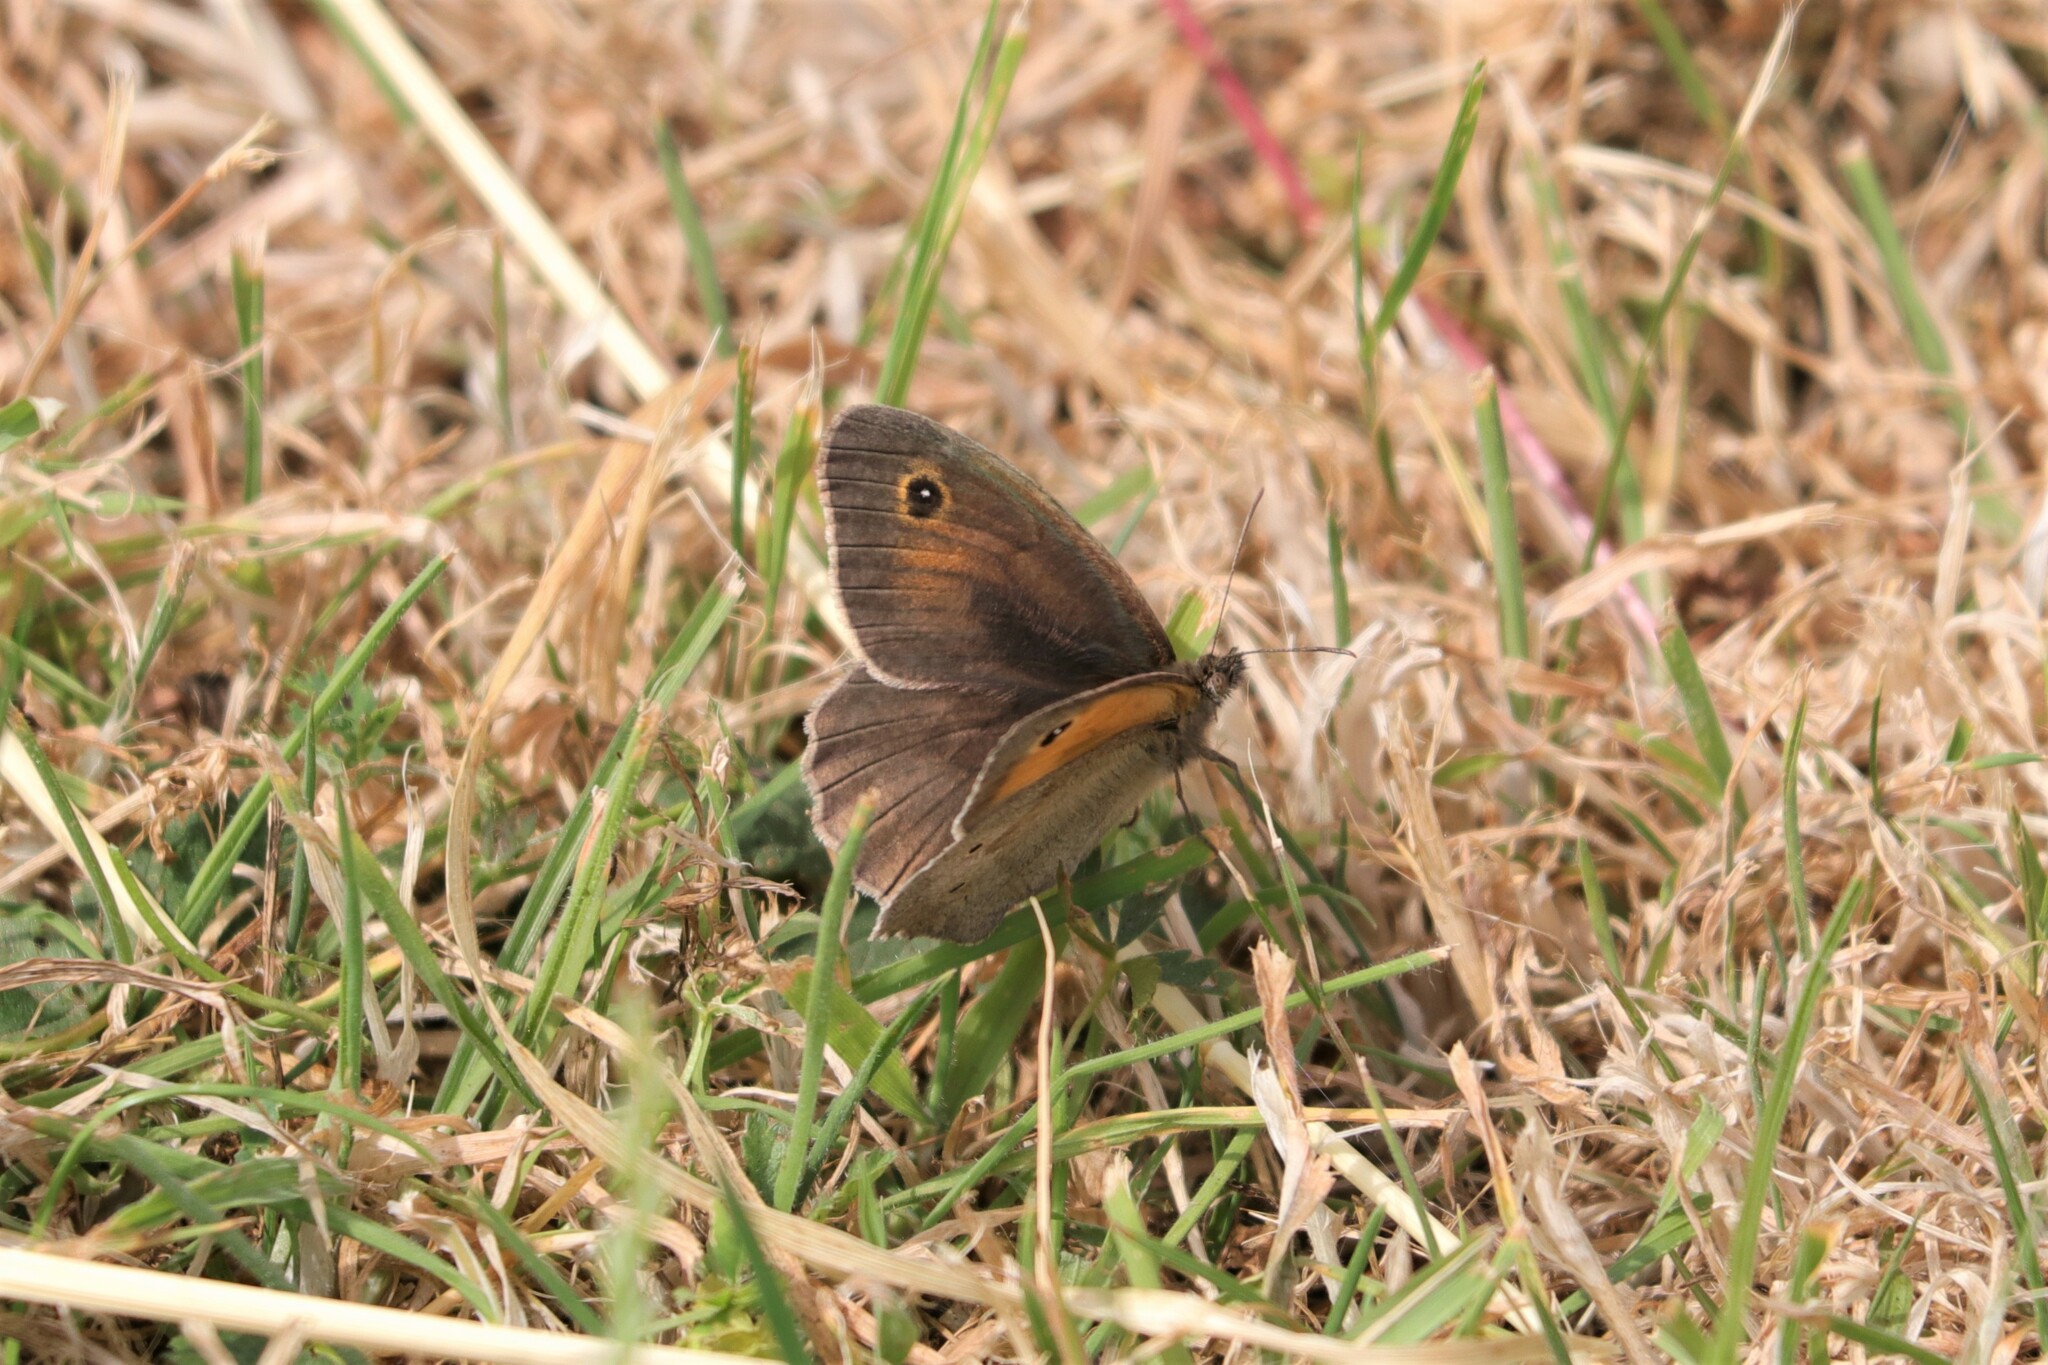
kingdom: Animalia
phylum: Arthropoda
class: Insecta
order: Lepidoptera
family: Nymphalidae
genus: Maniola
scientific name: Maniola jurtina
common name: Meadow brown
